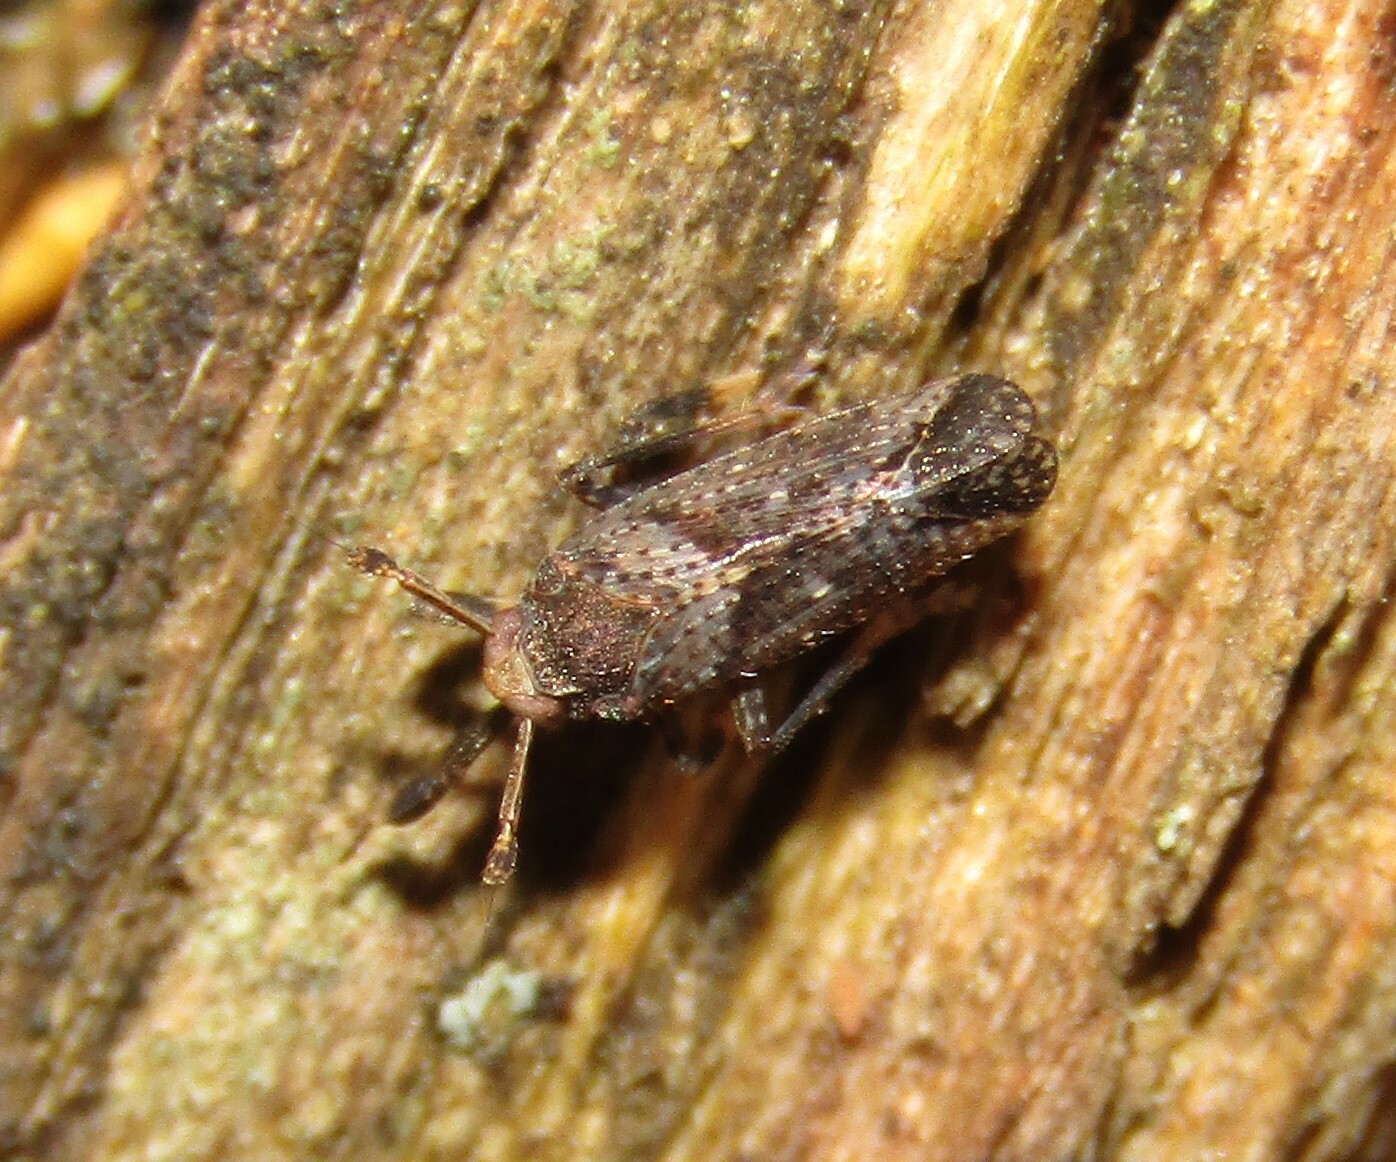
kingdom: Animalia
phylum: Arthropoda
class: Insecta
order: Hemiptera
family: Delphacidae
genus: Asiraca
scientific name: Asiraca clavicornis
